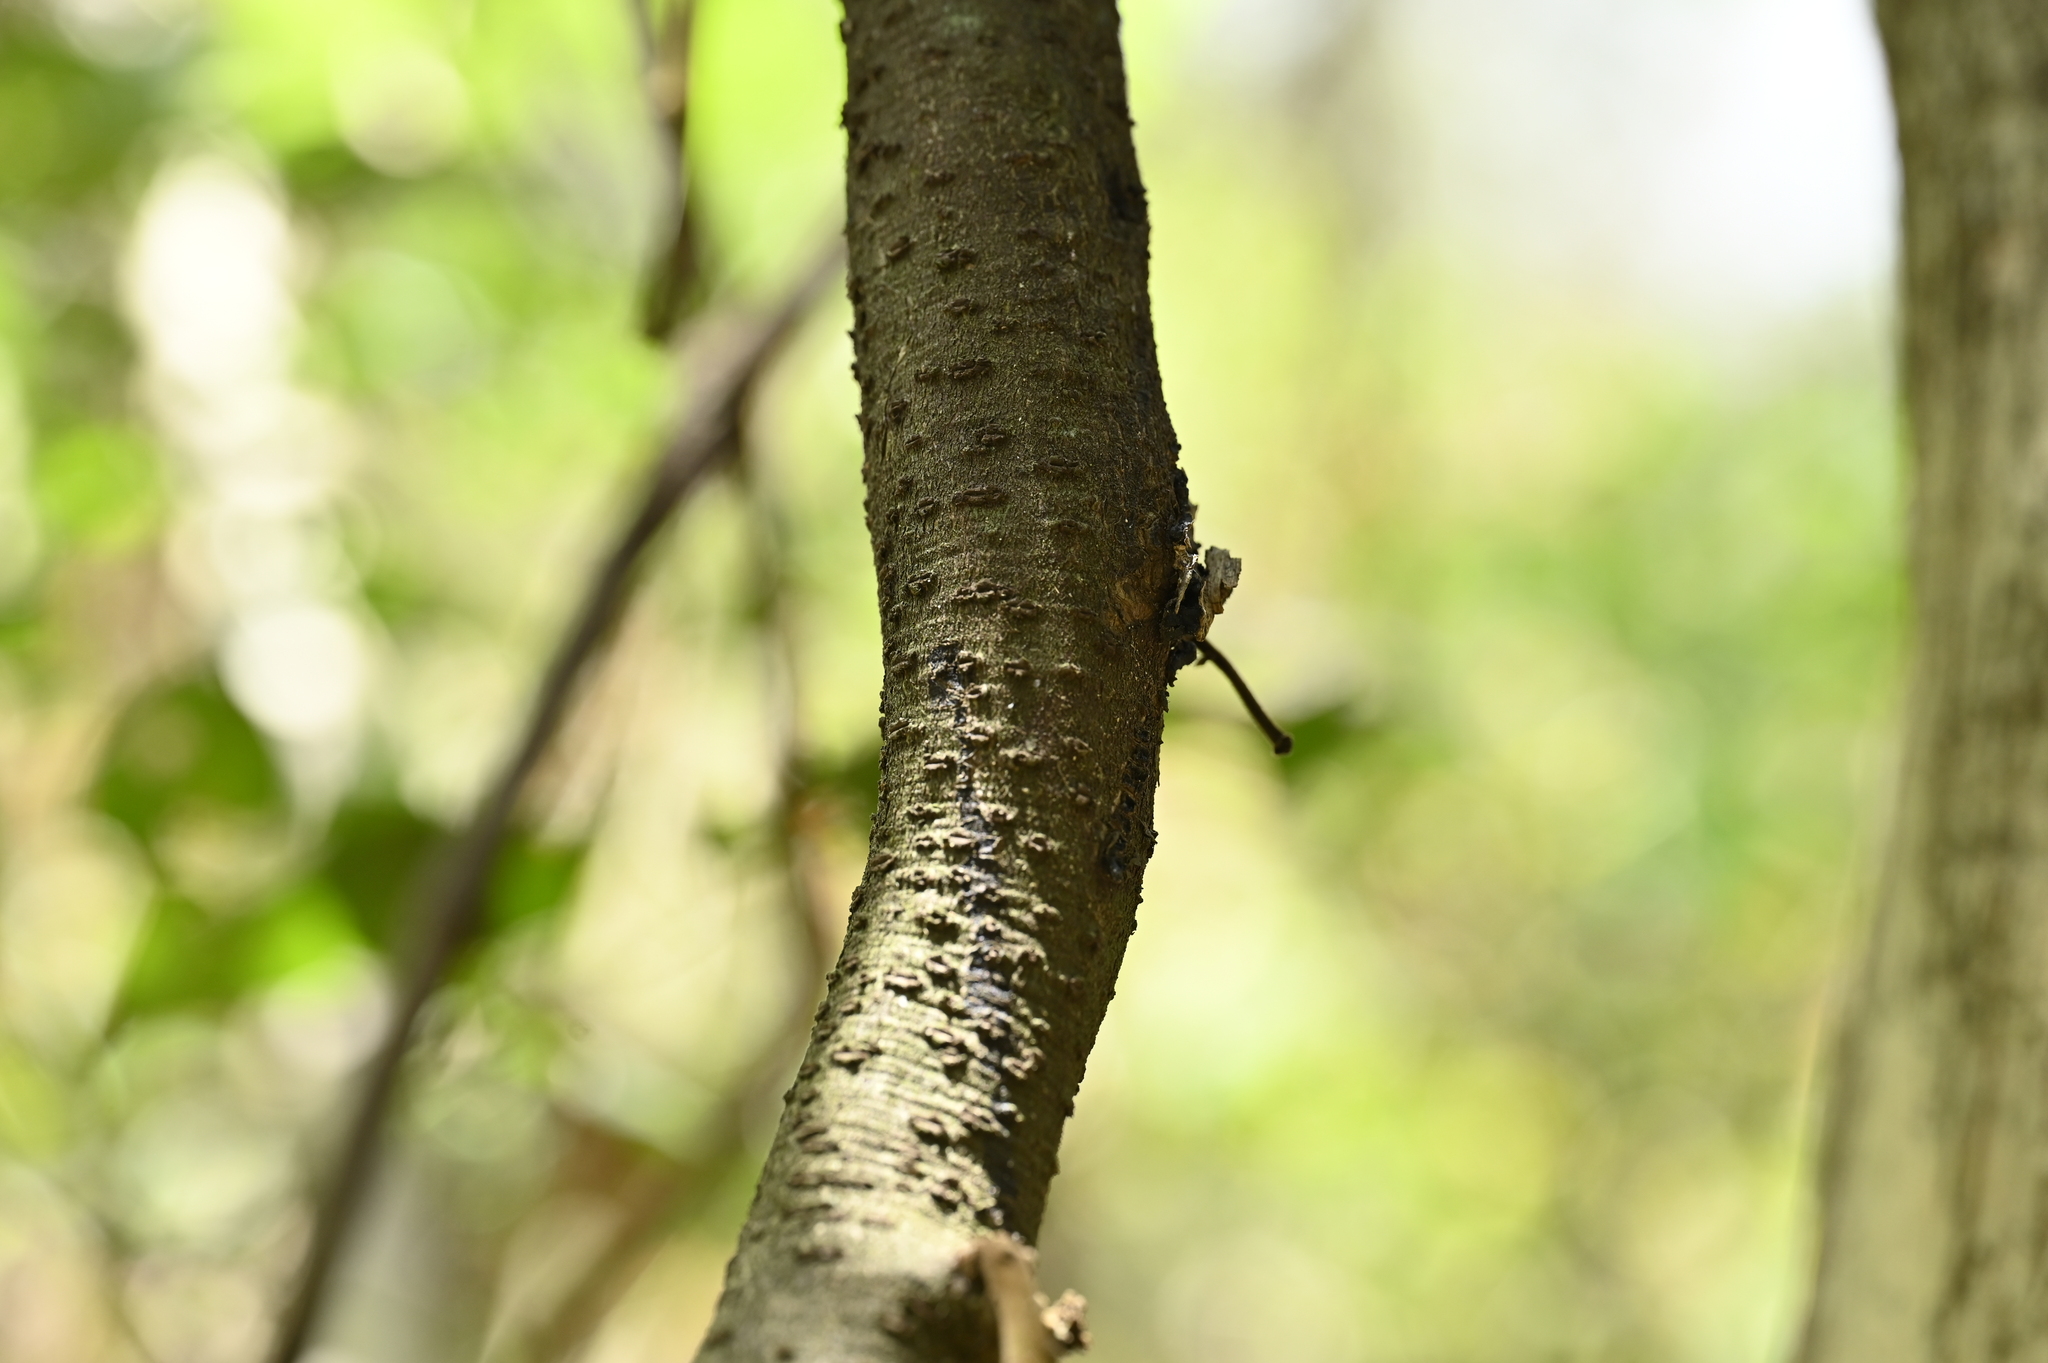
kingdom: Plantae
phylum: Tracheophyta
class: Magnoliopsida
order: Fabales
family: Fabaceae
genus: Mucuna
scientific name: Mucuna macrocarpa
